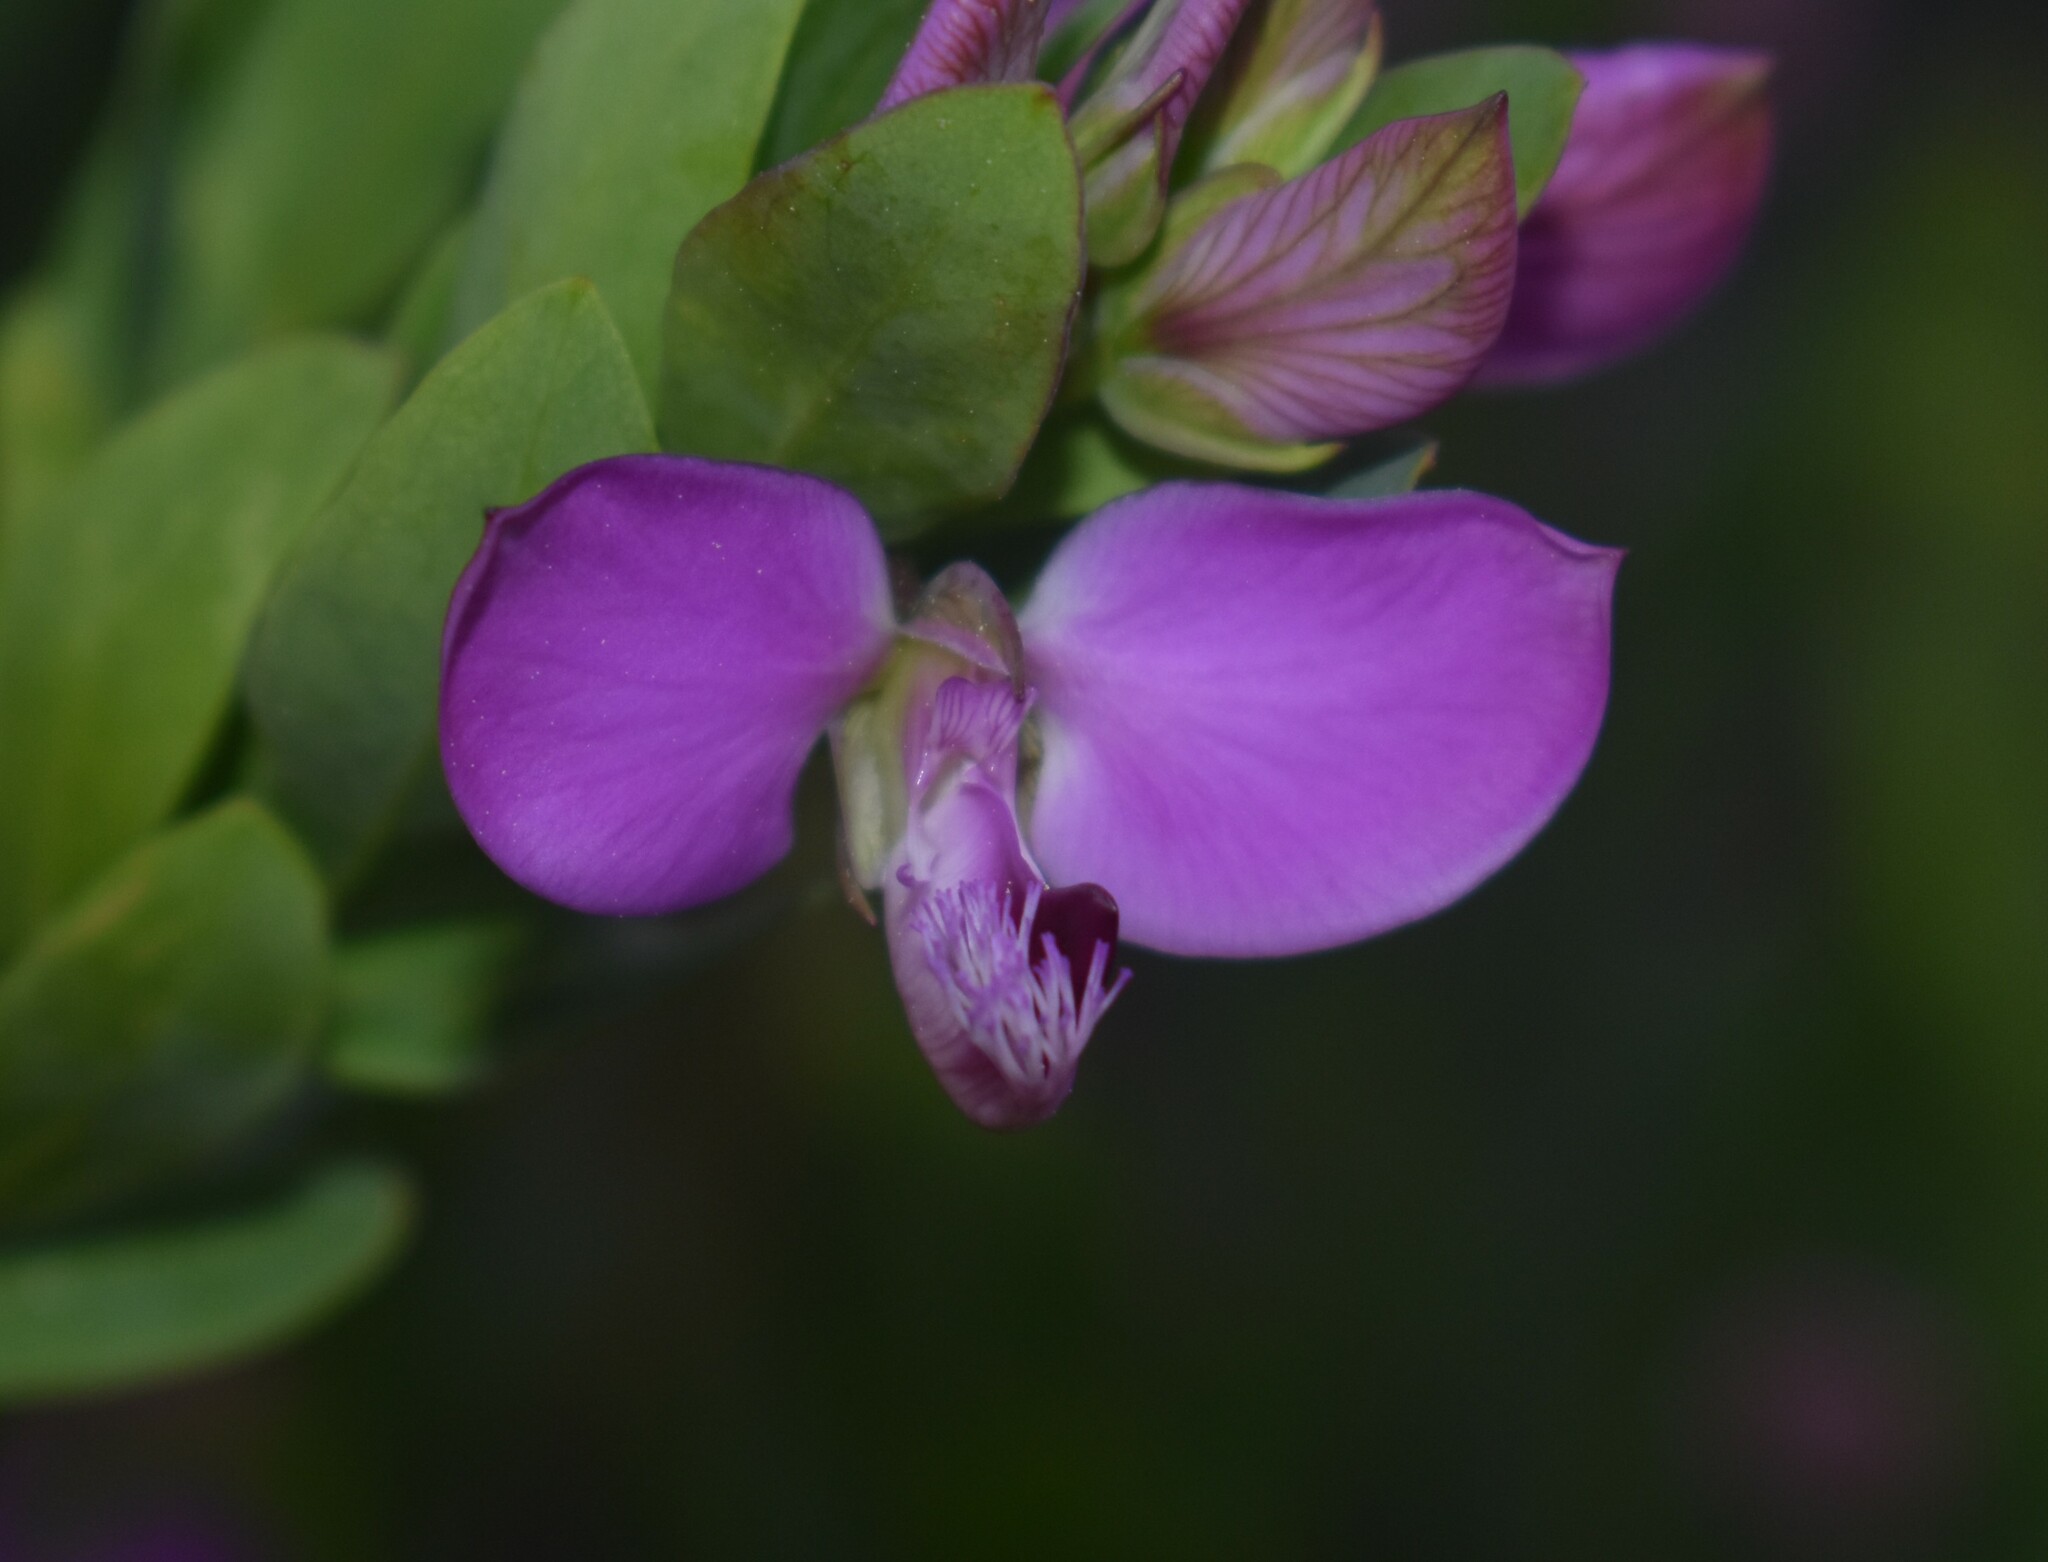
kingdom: Plantae
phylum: Tracheophyta
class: Magnoliopsida
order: Fabales
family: Polygalaceae
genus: Polygala
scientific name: Polygala myrtifolia
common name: Myrtle-leaf milkwort
